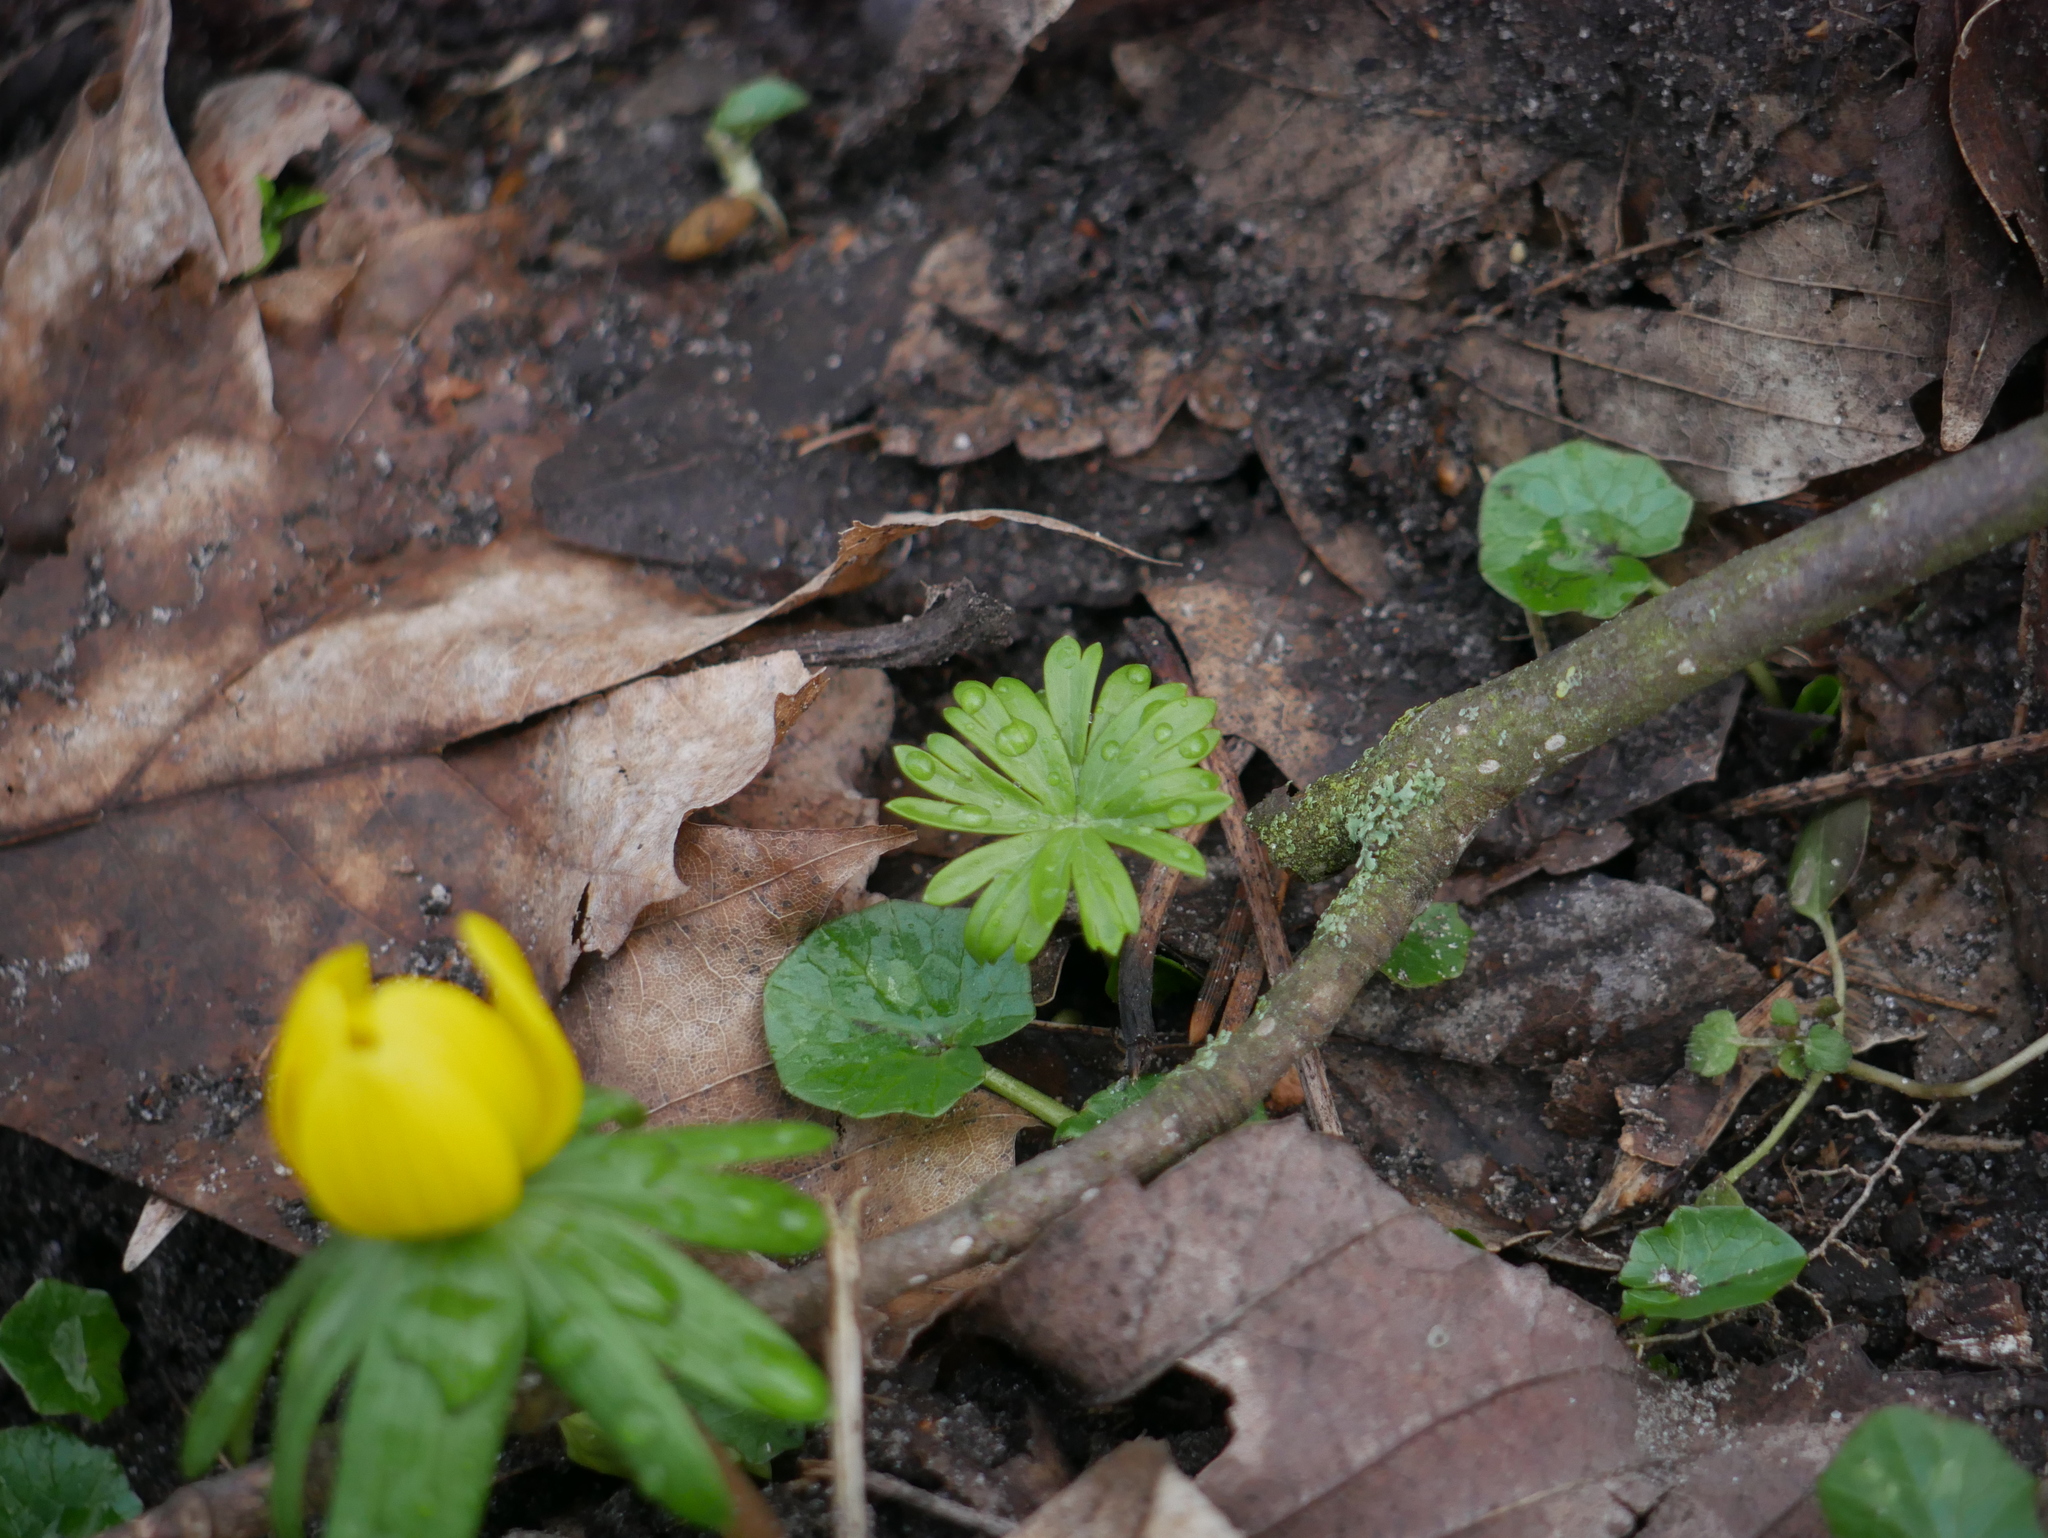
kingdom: Plantae
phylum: Tracheophyta
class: Magnoliopsida
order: Ranunculales
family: Ranunculaceae
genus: Eranthis
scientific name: Eranthis hyemalis
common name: Winter aconite
